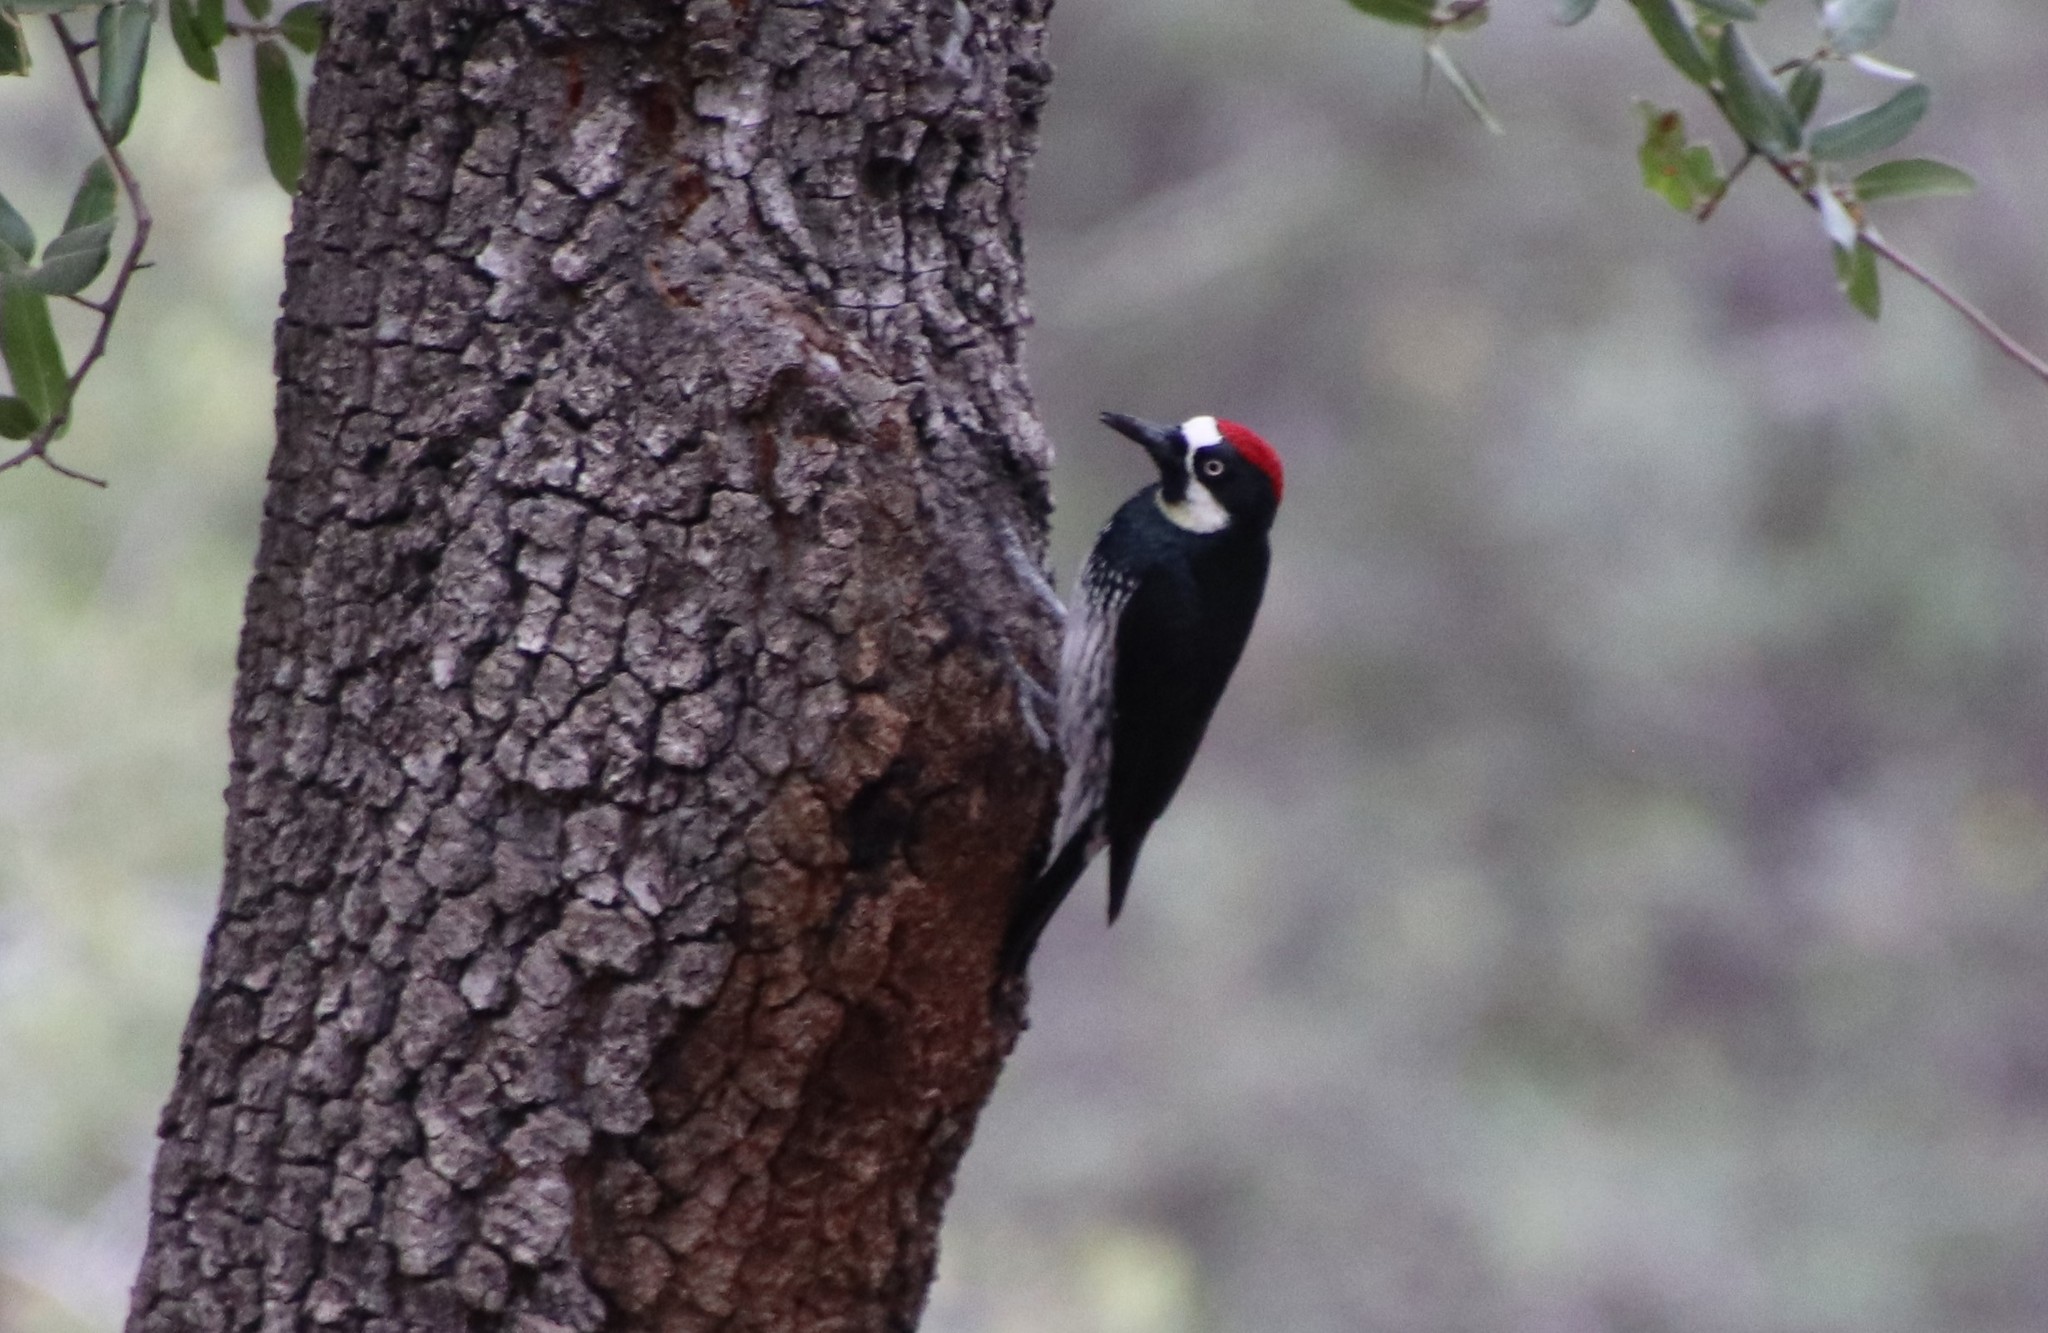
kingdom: Animalia
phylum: Chordata
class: Aves
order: Piciformes
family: Picidae
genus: Melanerpes
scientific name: Melanerpes formicivorus
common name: Acorn woodpecker
